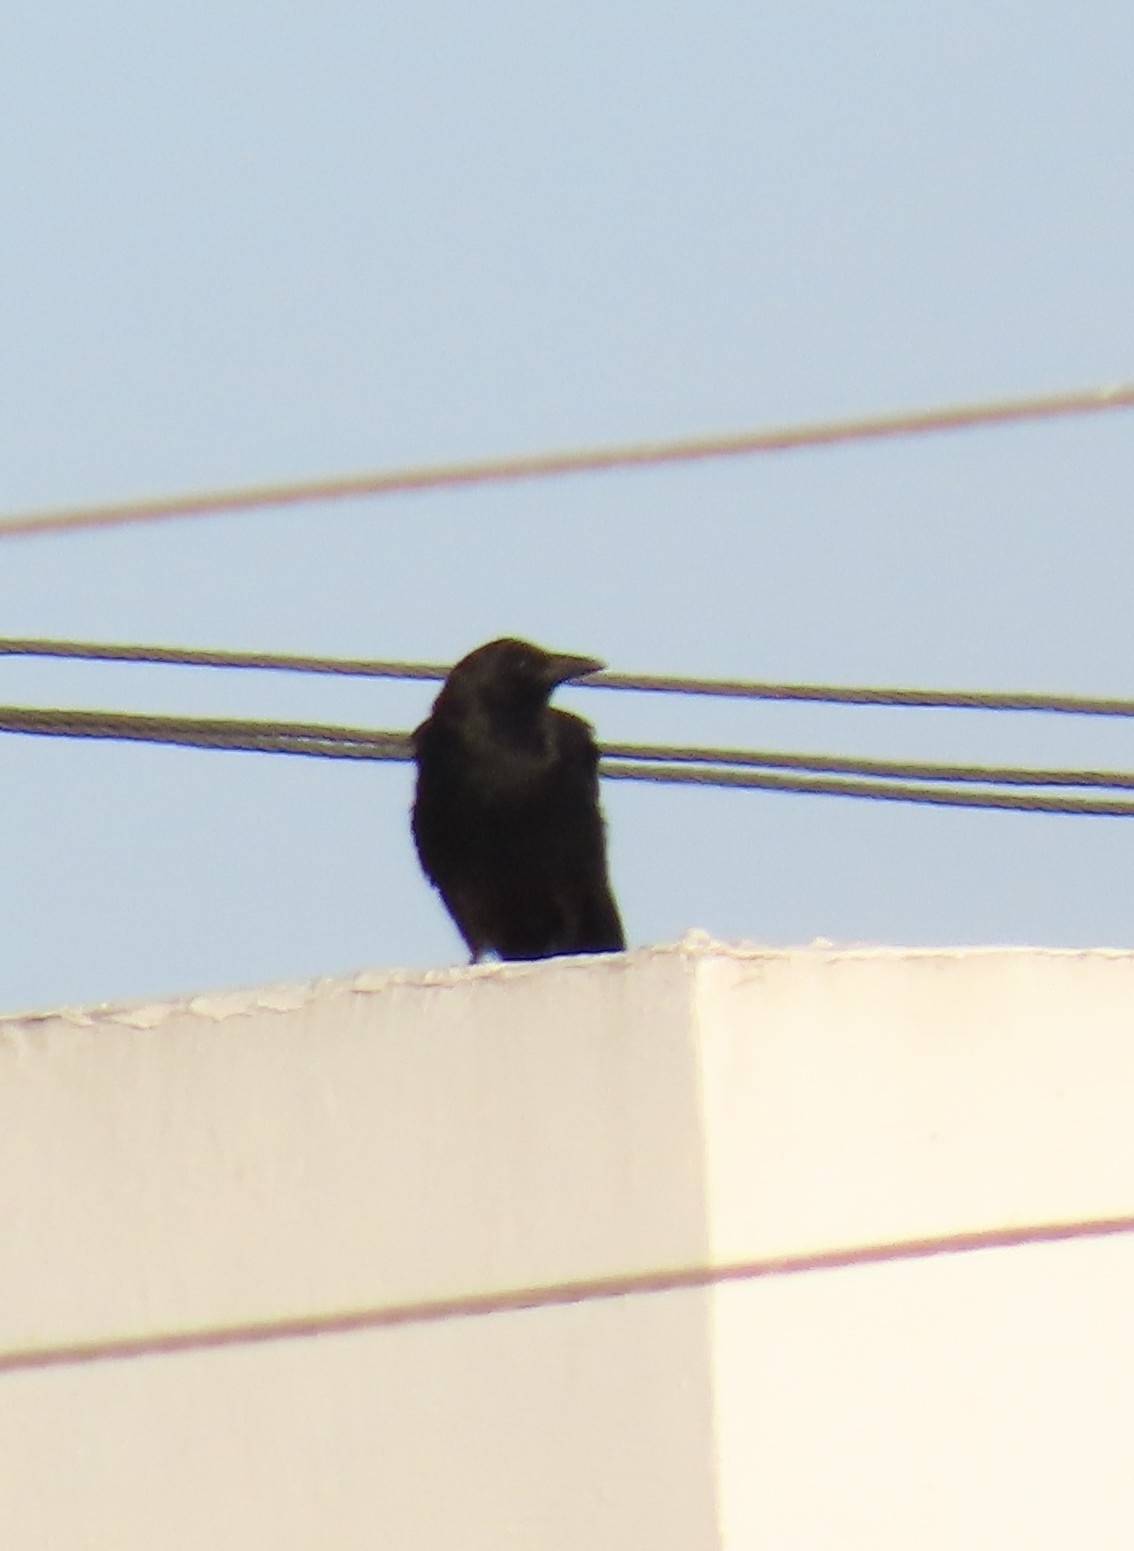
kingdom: Animalia
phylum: Chordata
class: Aves
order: Passeriformes
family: Corvidae
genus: Corvus
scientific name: Corvus brachyrhynchos
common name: American crow
